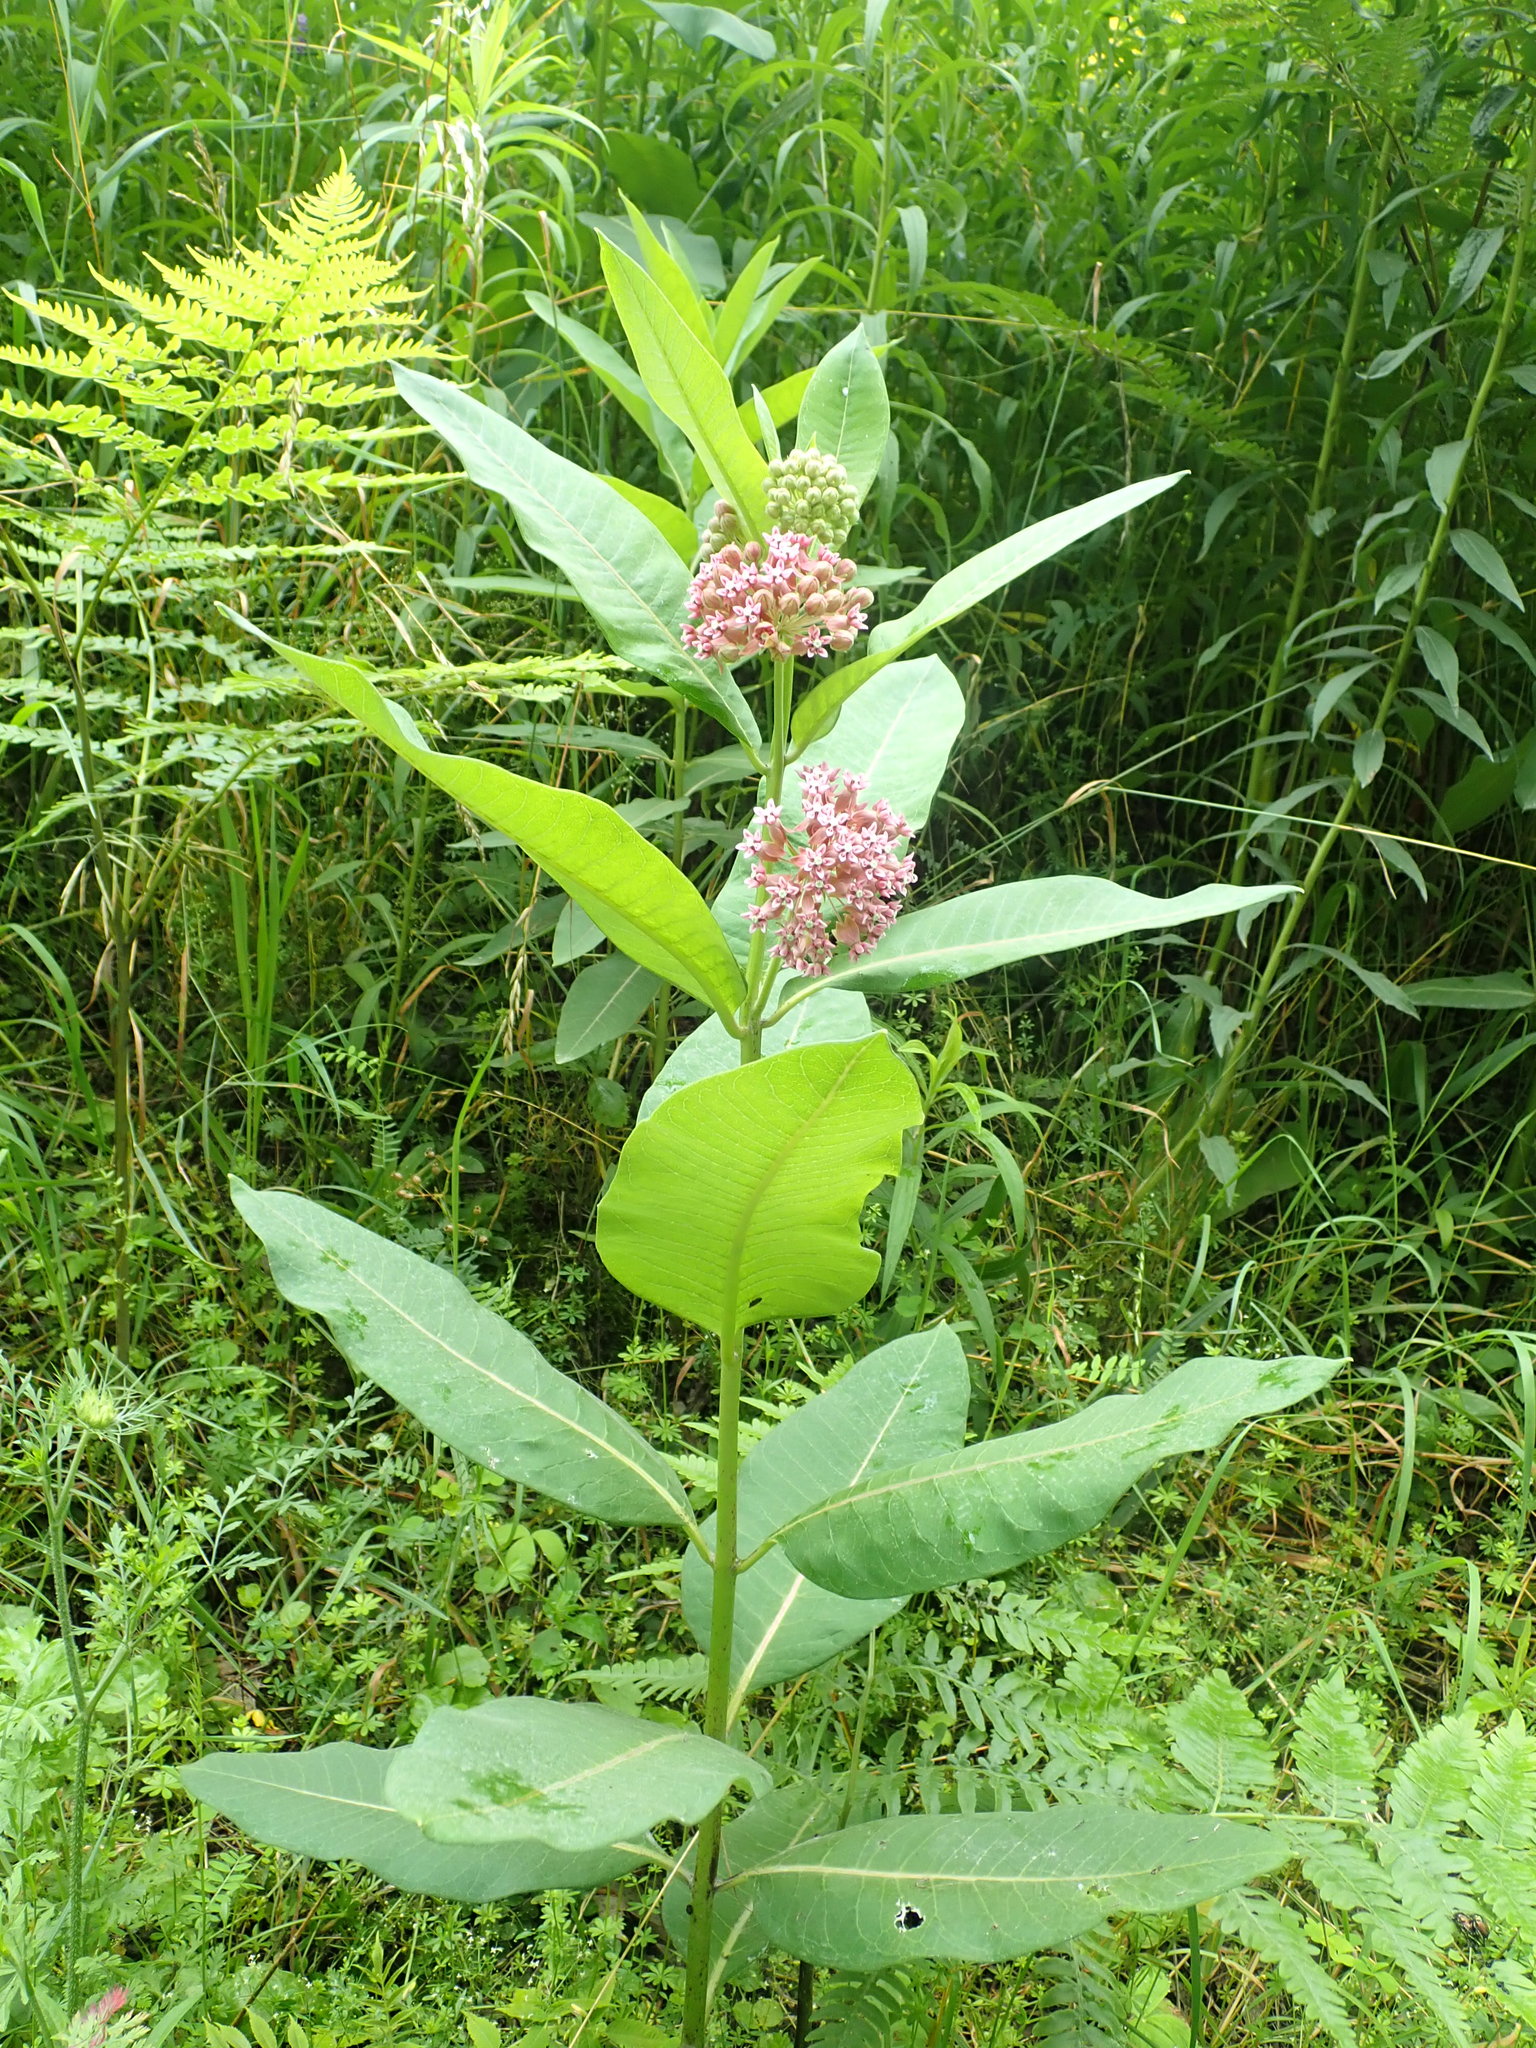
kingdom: Plantae
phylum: Tracheophyta
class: Magnoliopsida
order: Gentianales
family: Apocynaceae
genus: Asclepias
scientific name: Asclepias syriaca
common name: Common milkweed
